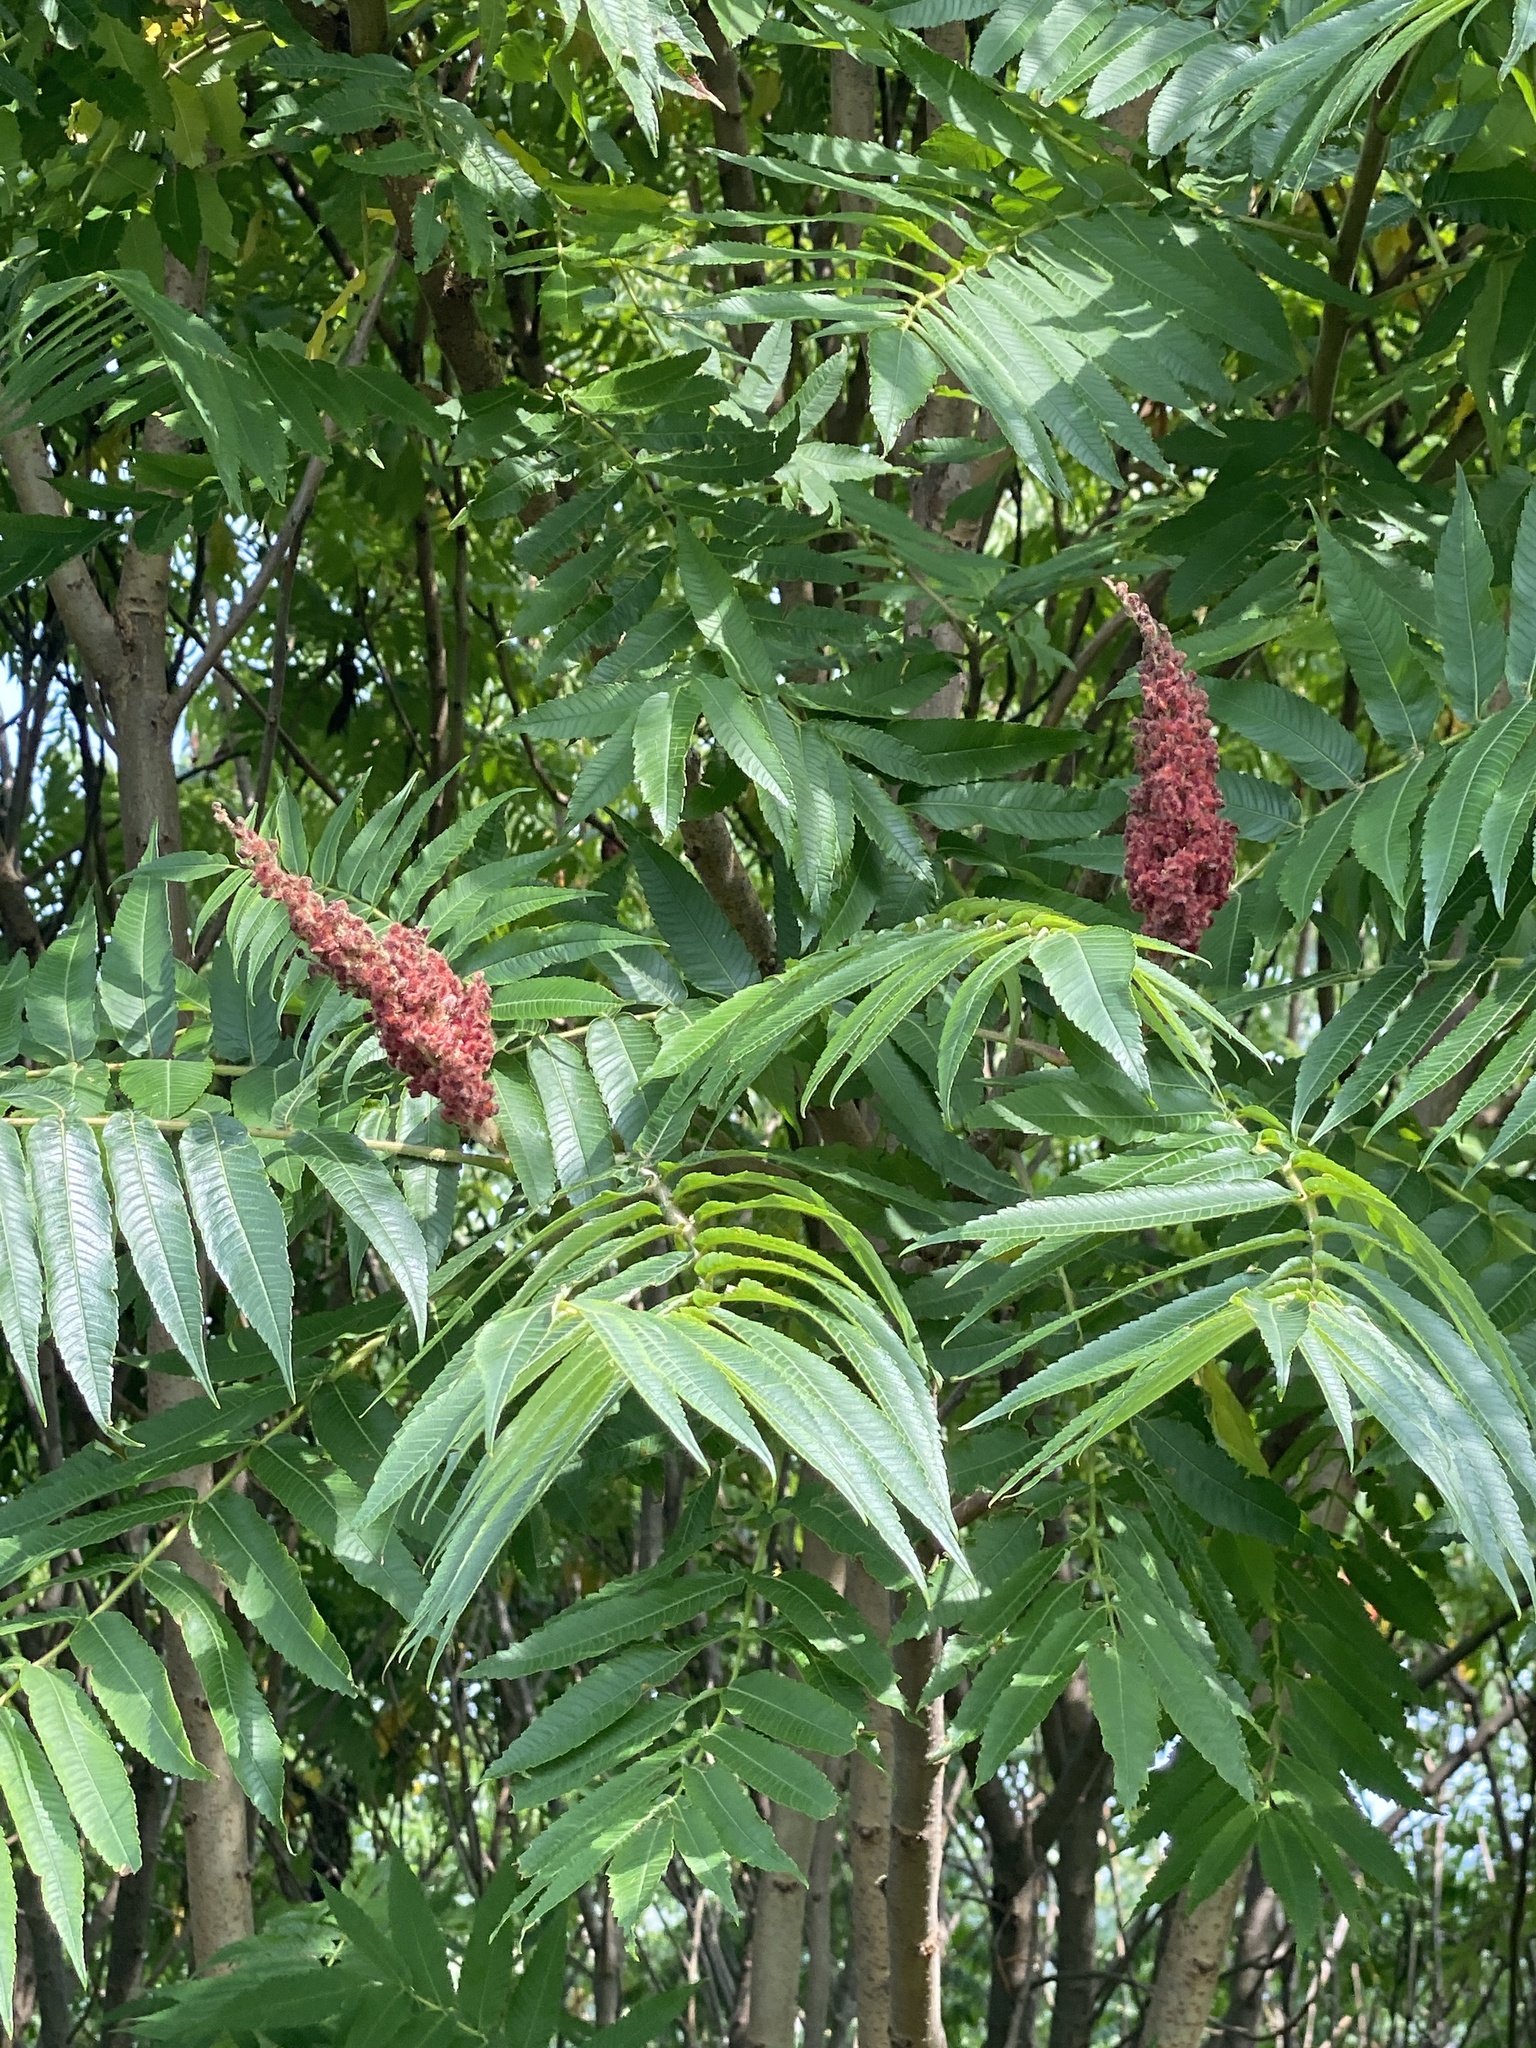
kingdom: Plantae
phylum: Tracheophyta
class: Magnoliopsida
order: Sapindales
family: Anacardiaceae
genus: Rhus
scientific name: Rhus typhina
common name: Staghorn sumac
